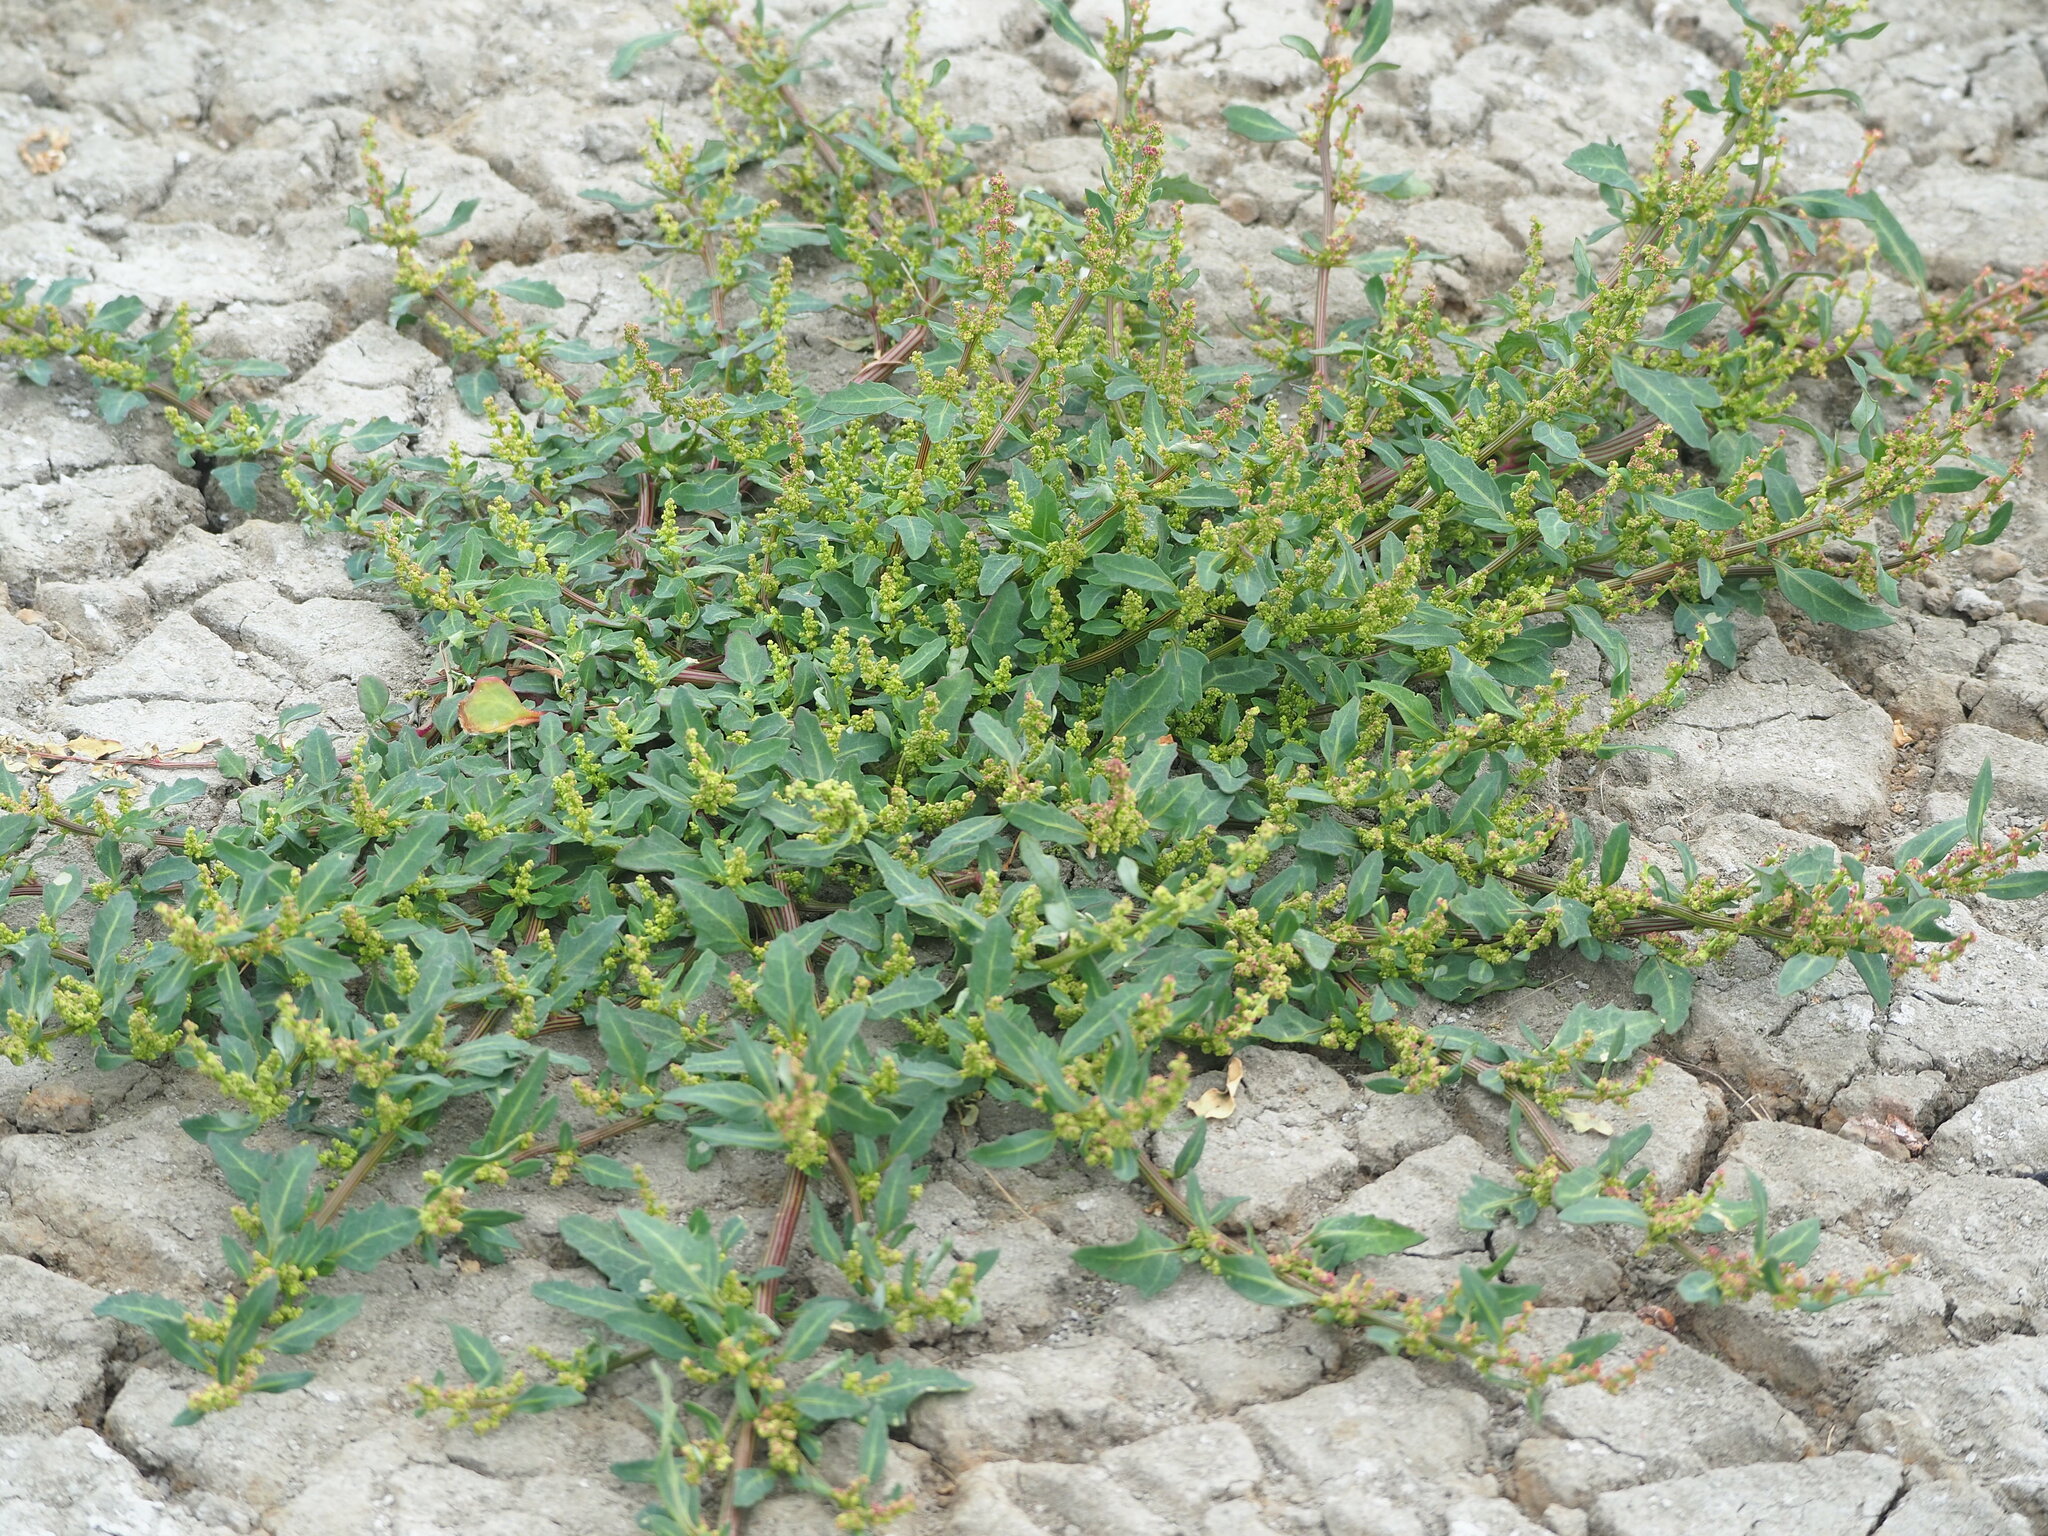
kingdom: Plantae
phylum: Tracheophyta
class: Magnoliopsida
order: Caryophyllales
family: Amaranthaceae
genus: Oxybasis
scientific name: Oxybasis glauca
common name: Glaucous goosefoot
